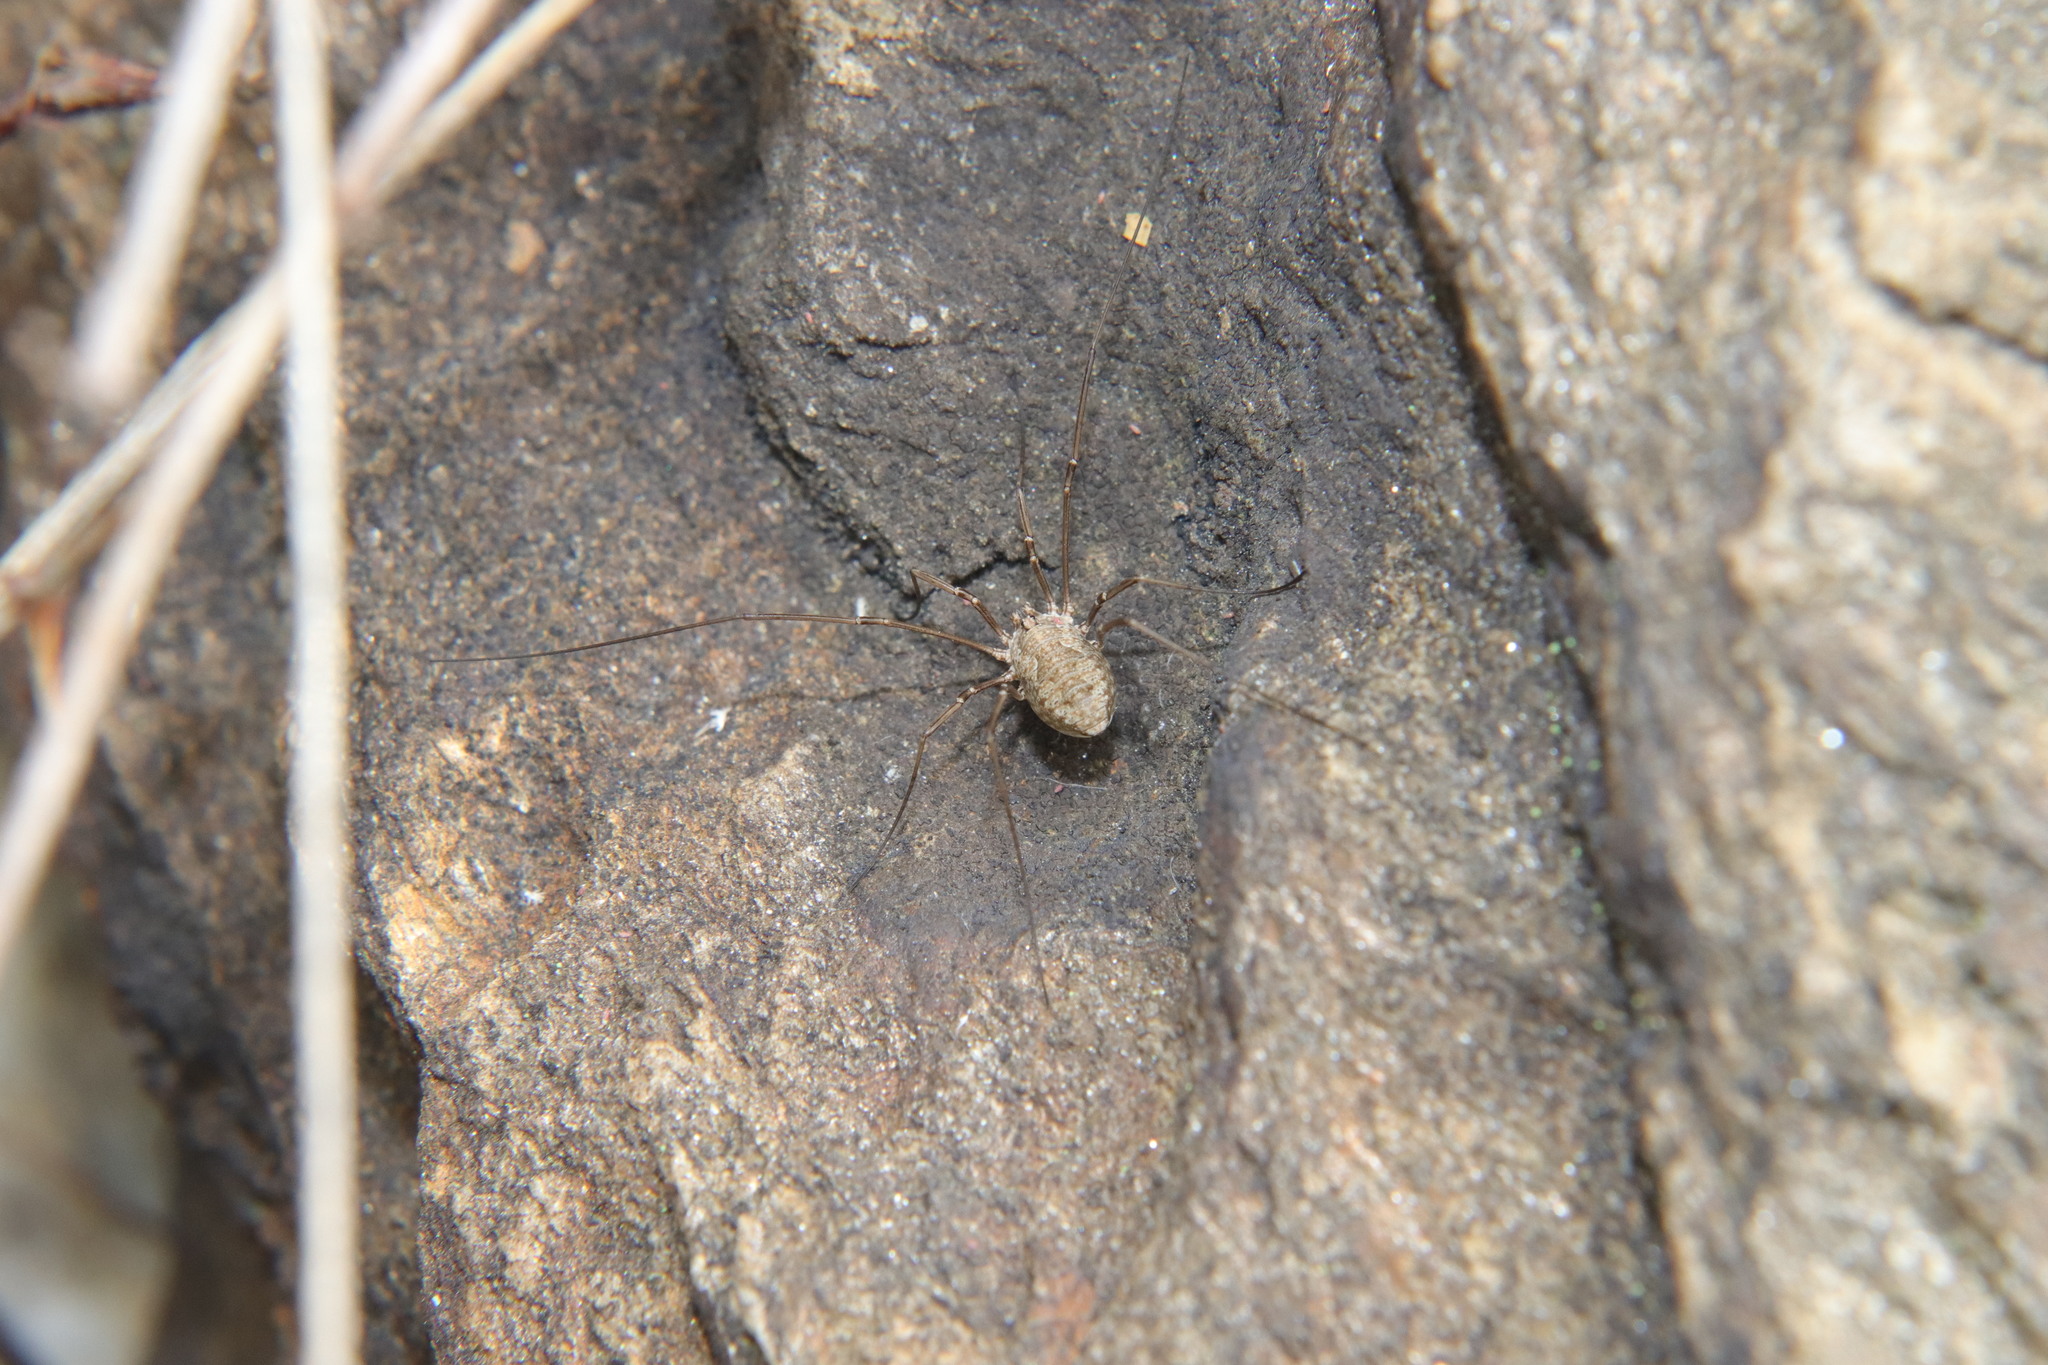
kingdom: Animalia
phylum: Arthropoda
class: Arachnida
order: Opiliones
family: Phalangiidae
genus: Phalangium
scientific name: Phalangium opilio
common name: Daddy longleg
